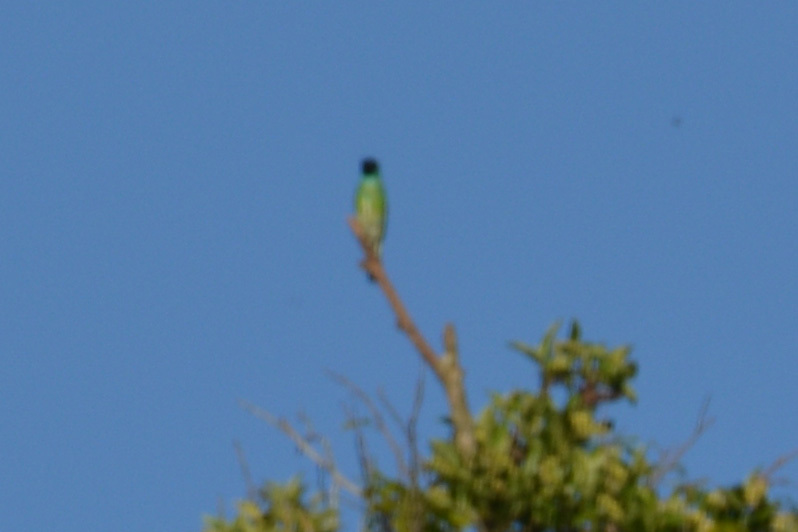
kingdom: Animalia
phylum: Chordata
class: Aves
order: Passeriformes
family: Thraupidae
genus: Tersina
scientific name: Tersina viridis
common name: Swallow tanager
